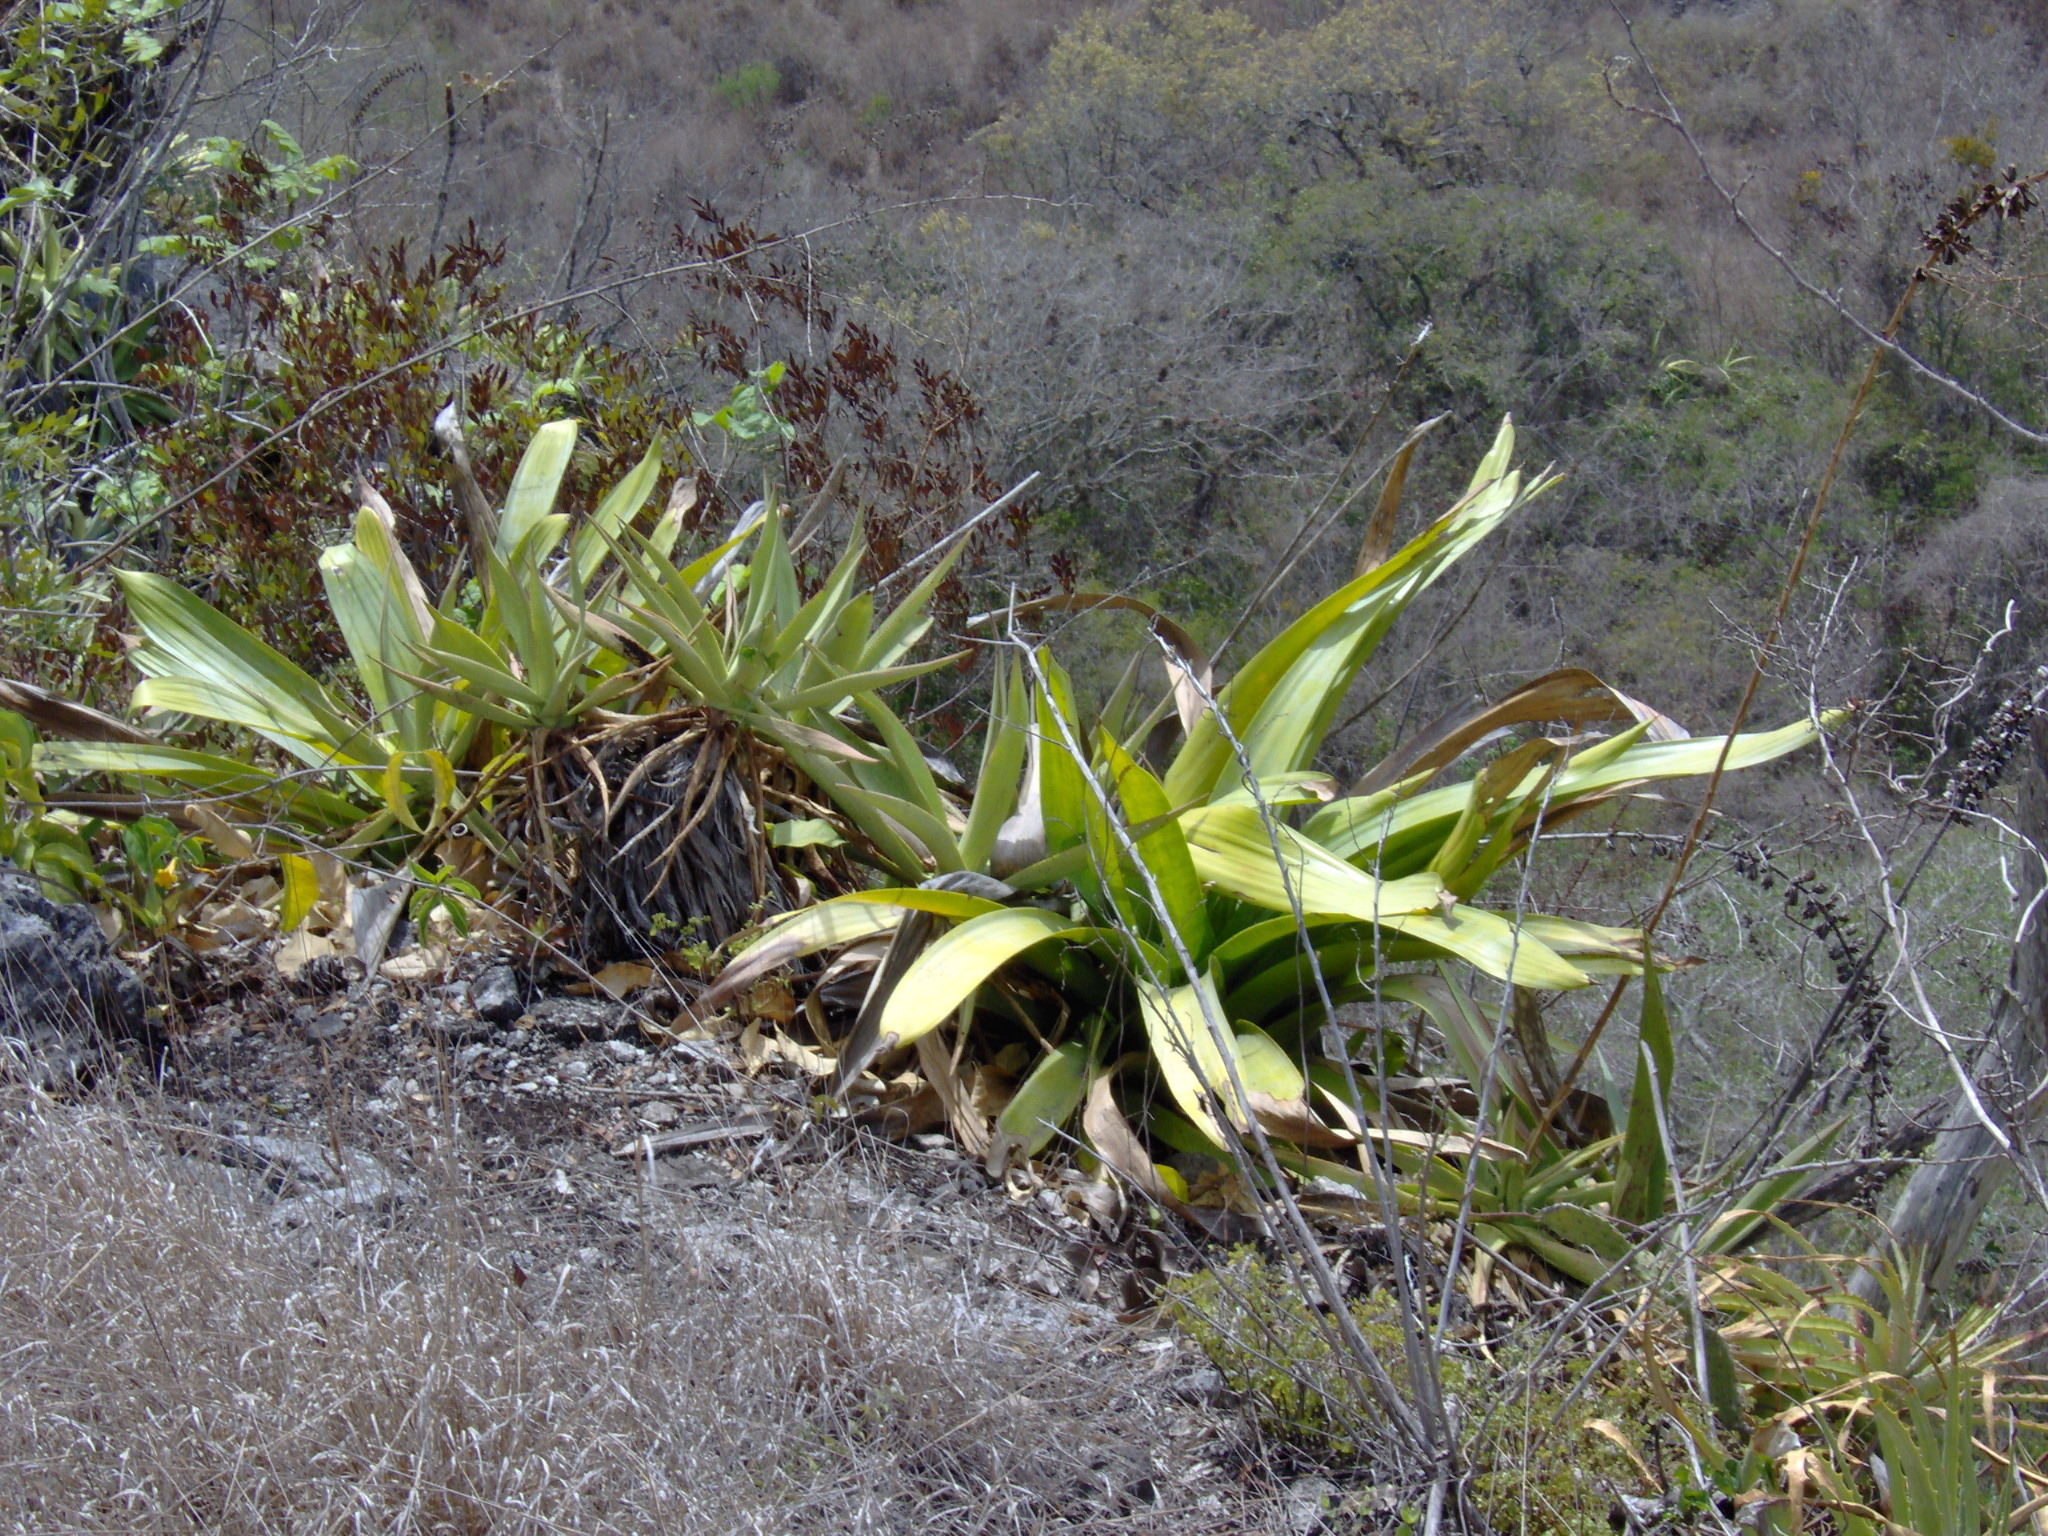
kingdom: Plantae
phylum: Tracheophyta
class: Liliopsida
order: Poales
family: Bromeliaceae
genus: Pseudalcantarea
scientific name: Pseudalcantarea grandis
